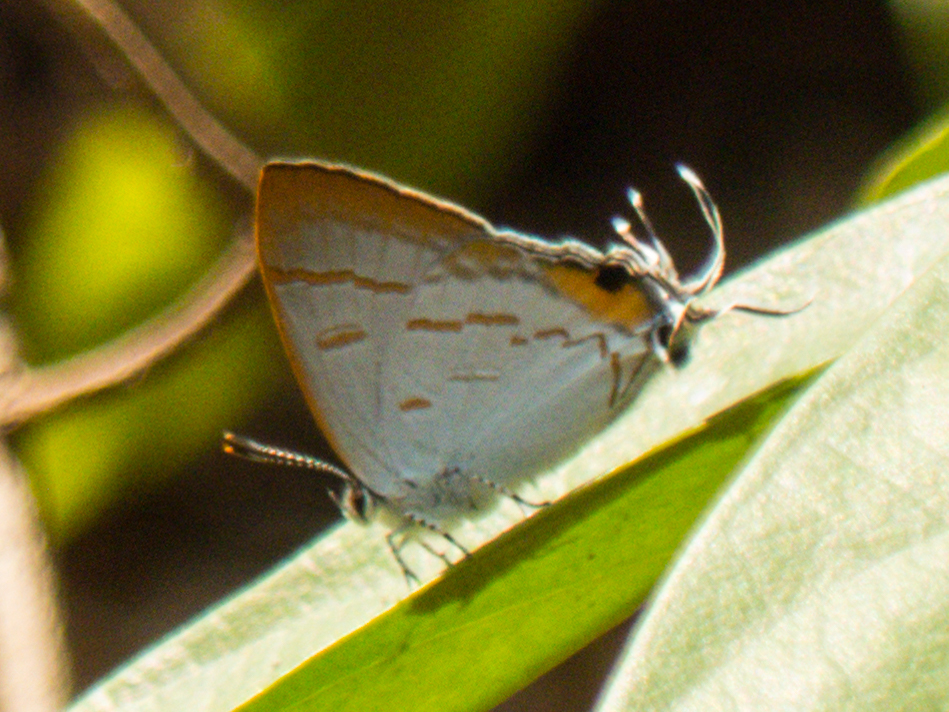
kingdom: Animalia
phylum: Arthropoda
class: Insecta
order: Lepidoptera
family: Lycaenidae
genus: Hypolycaena
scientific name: Hypolycaena thecloides
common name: Dark tit
